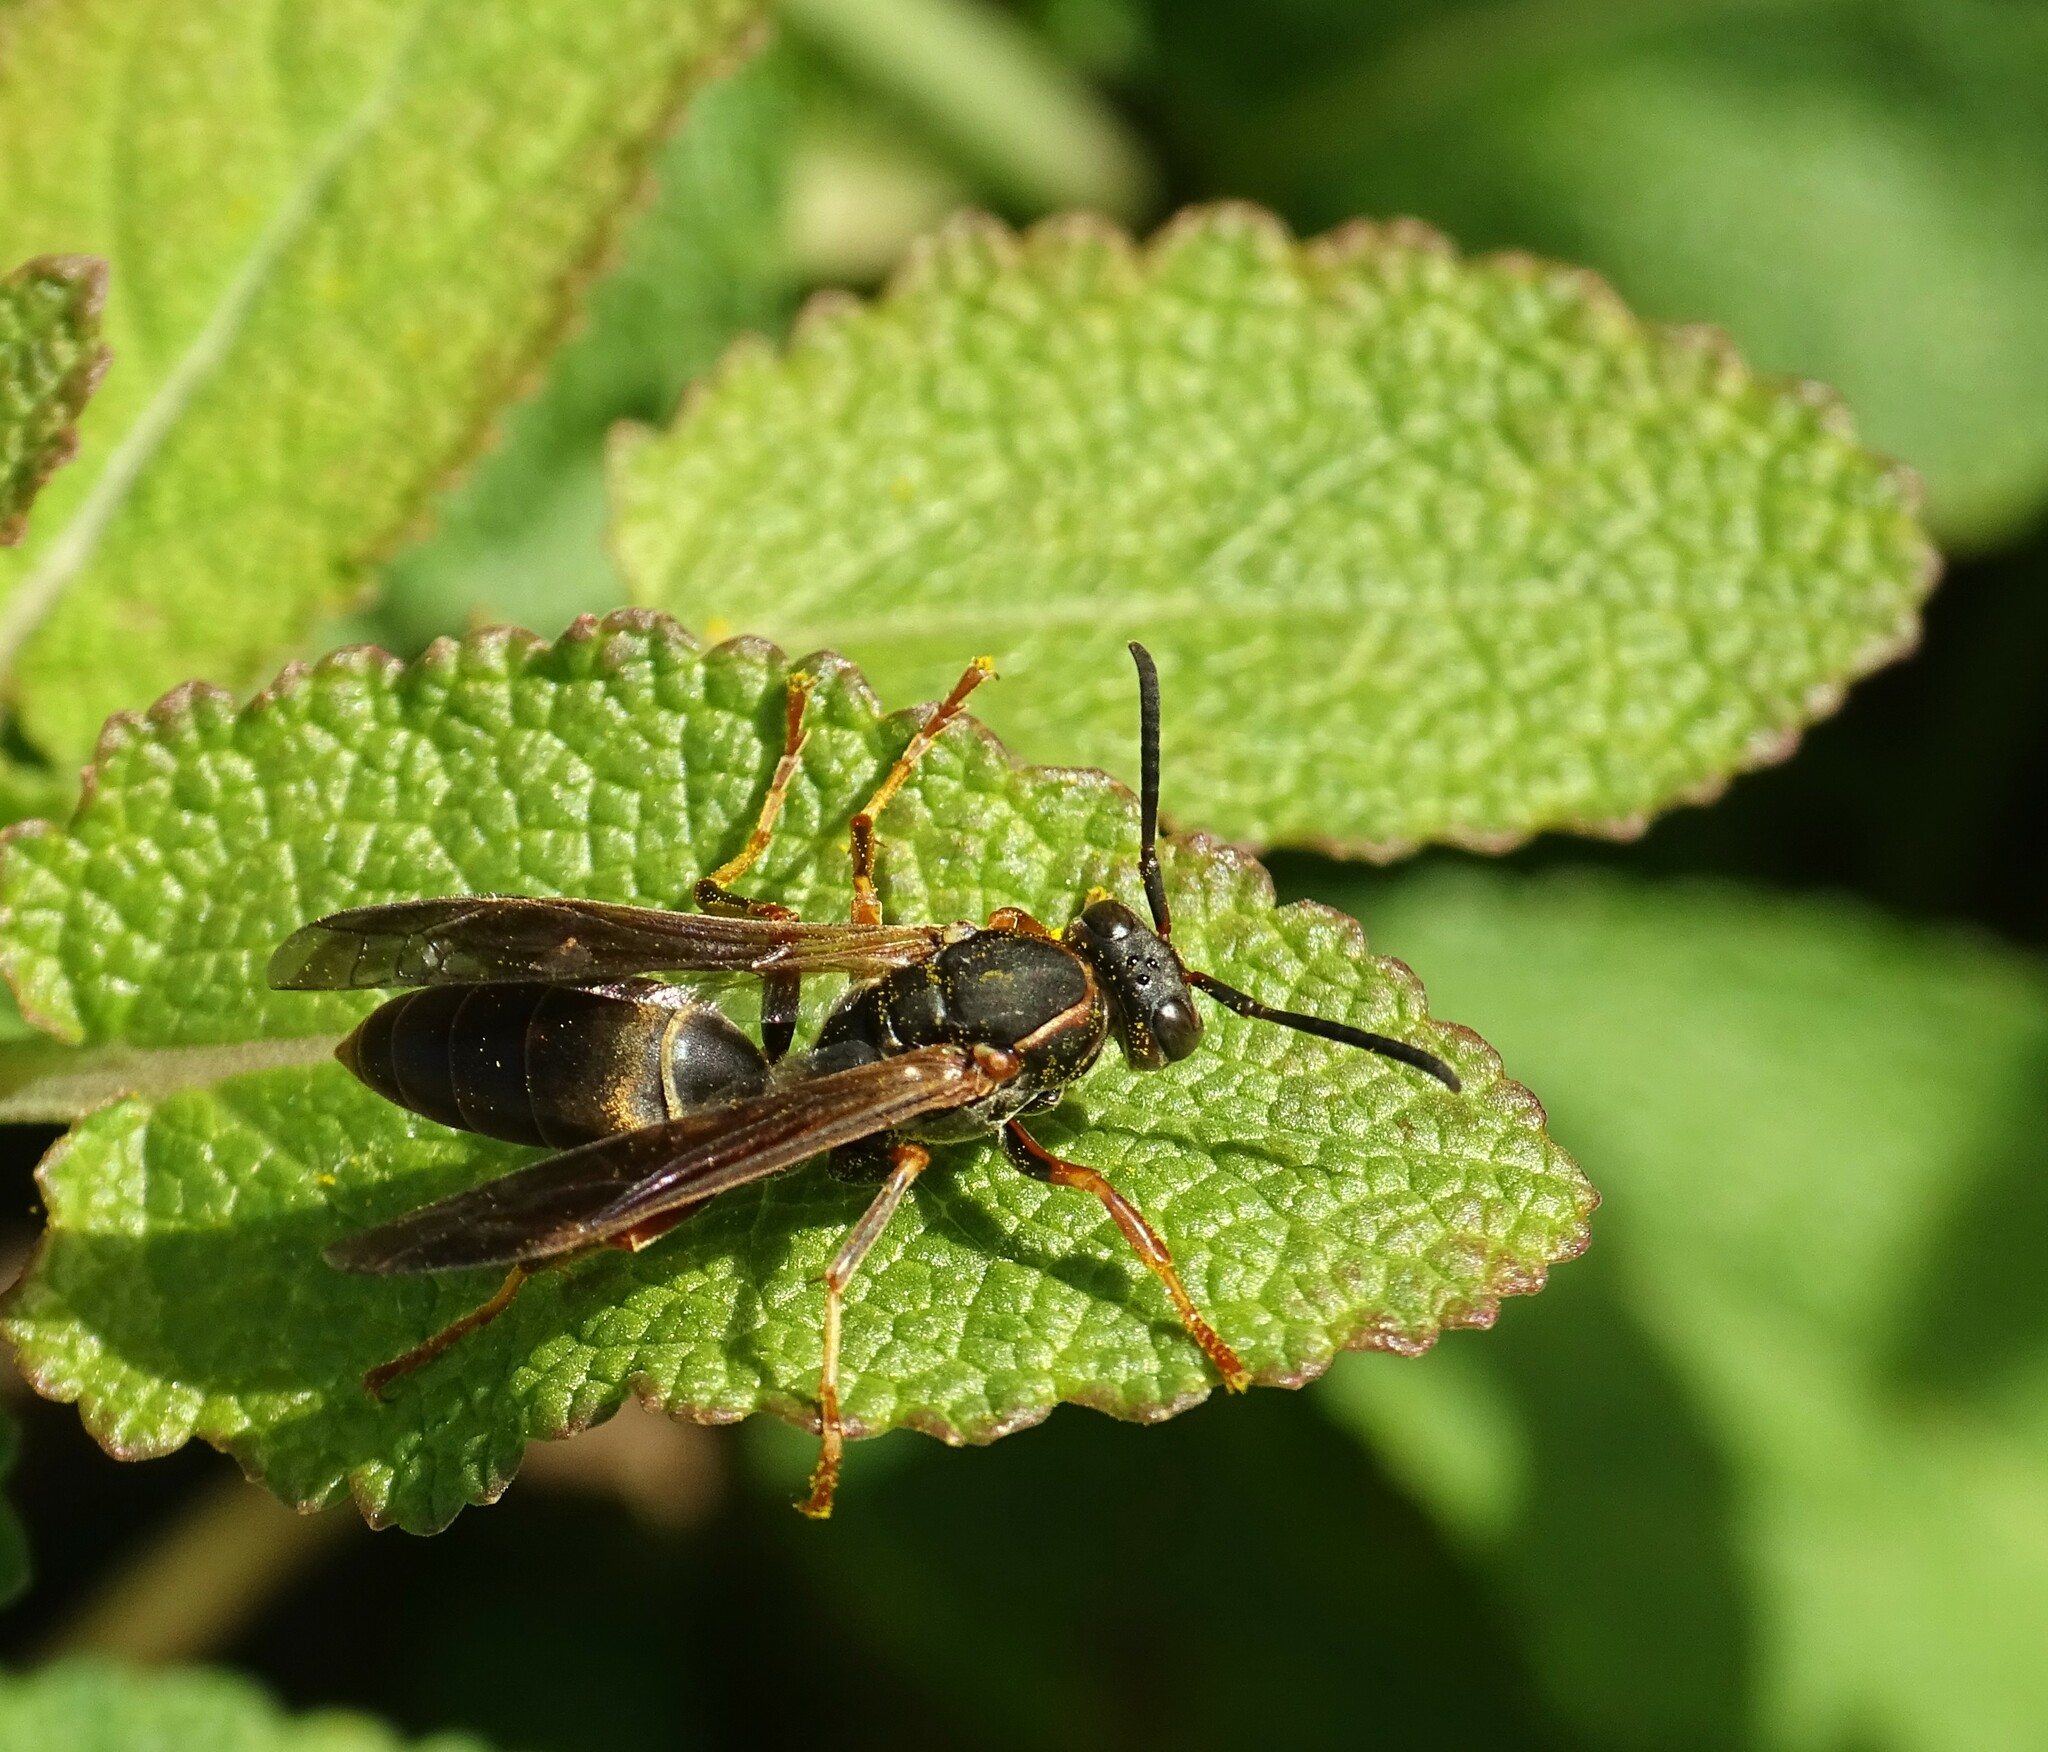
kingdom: Animalia
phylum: Arthropoda
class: Insecta
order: Hymenoptera
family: Eumenidae
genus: Polistes
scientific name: Polistes fuscatus
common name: Dark paper wasp
